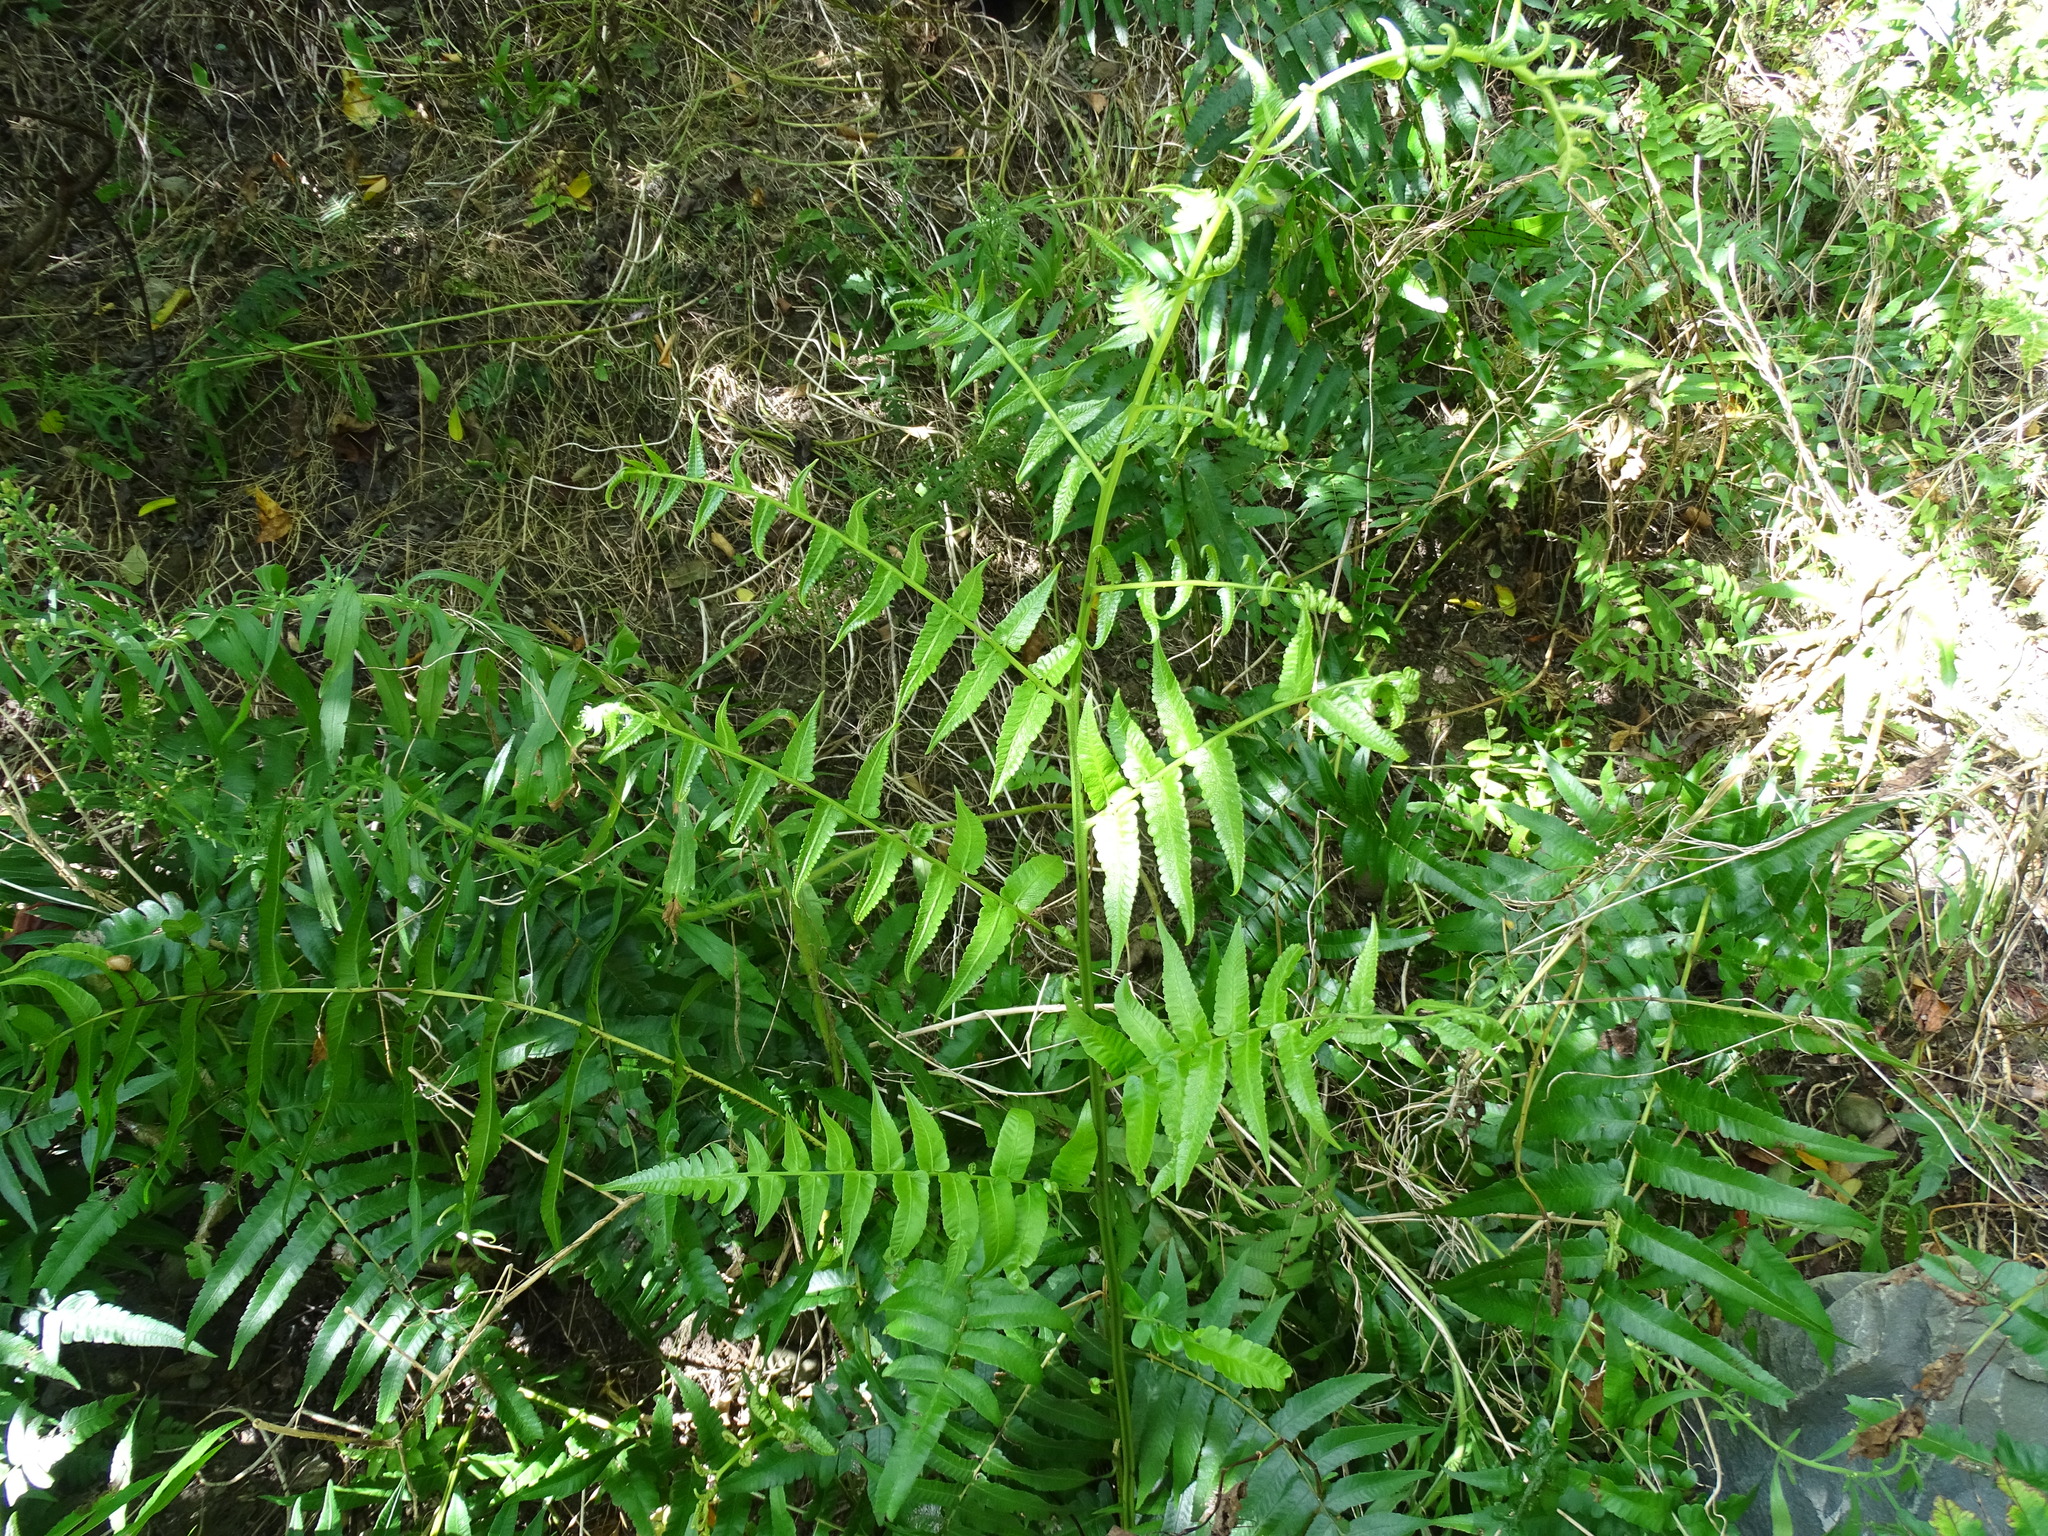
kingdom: Plantae
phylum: Tracheophyta
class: Polypodiopsida
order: Polypodiales
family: Athyriaceae
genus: Diplazium
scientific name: Diplazium esculentum
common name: Vegetable fern
